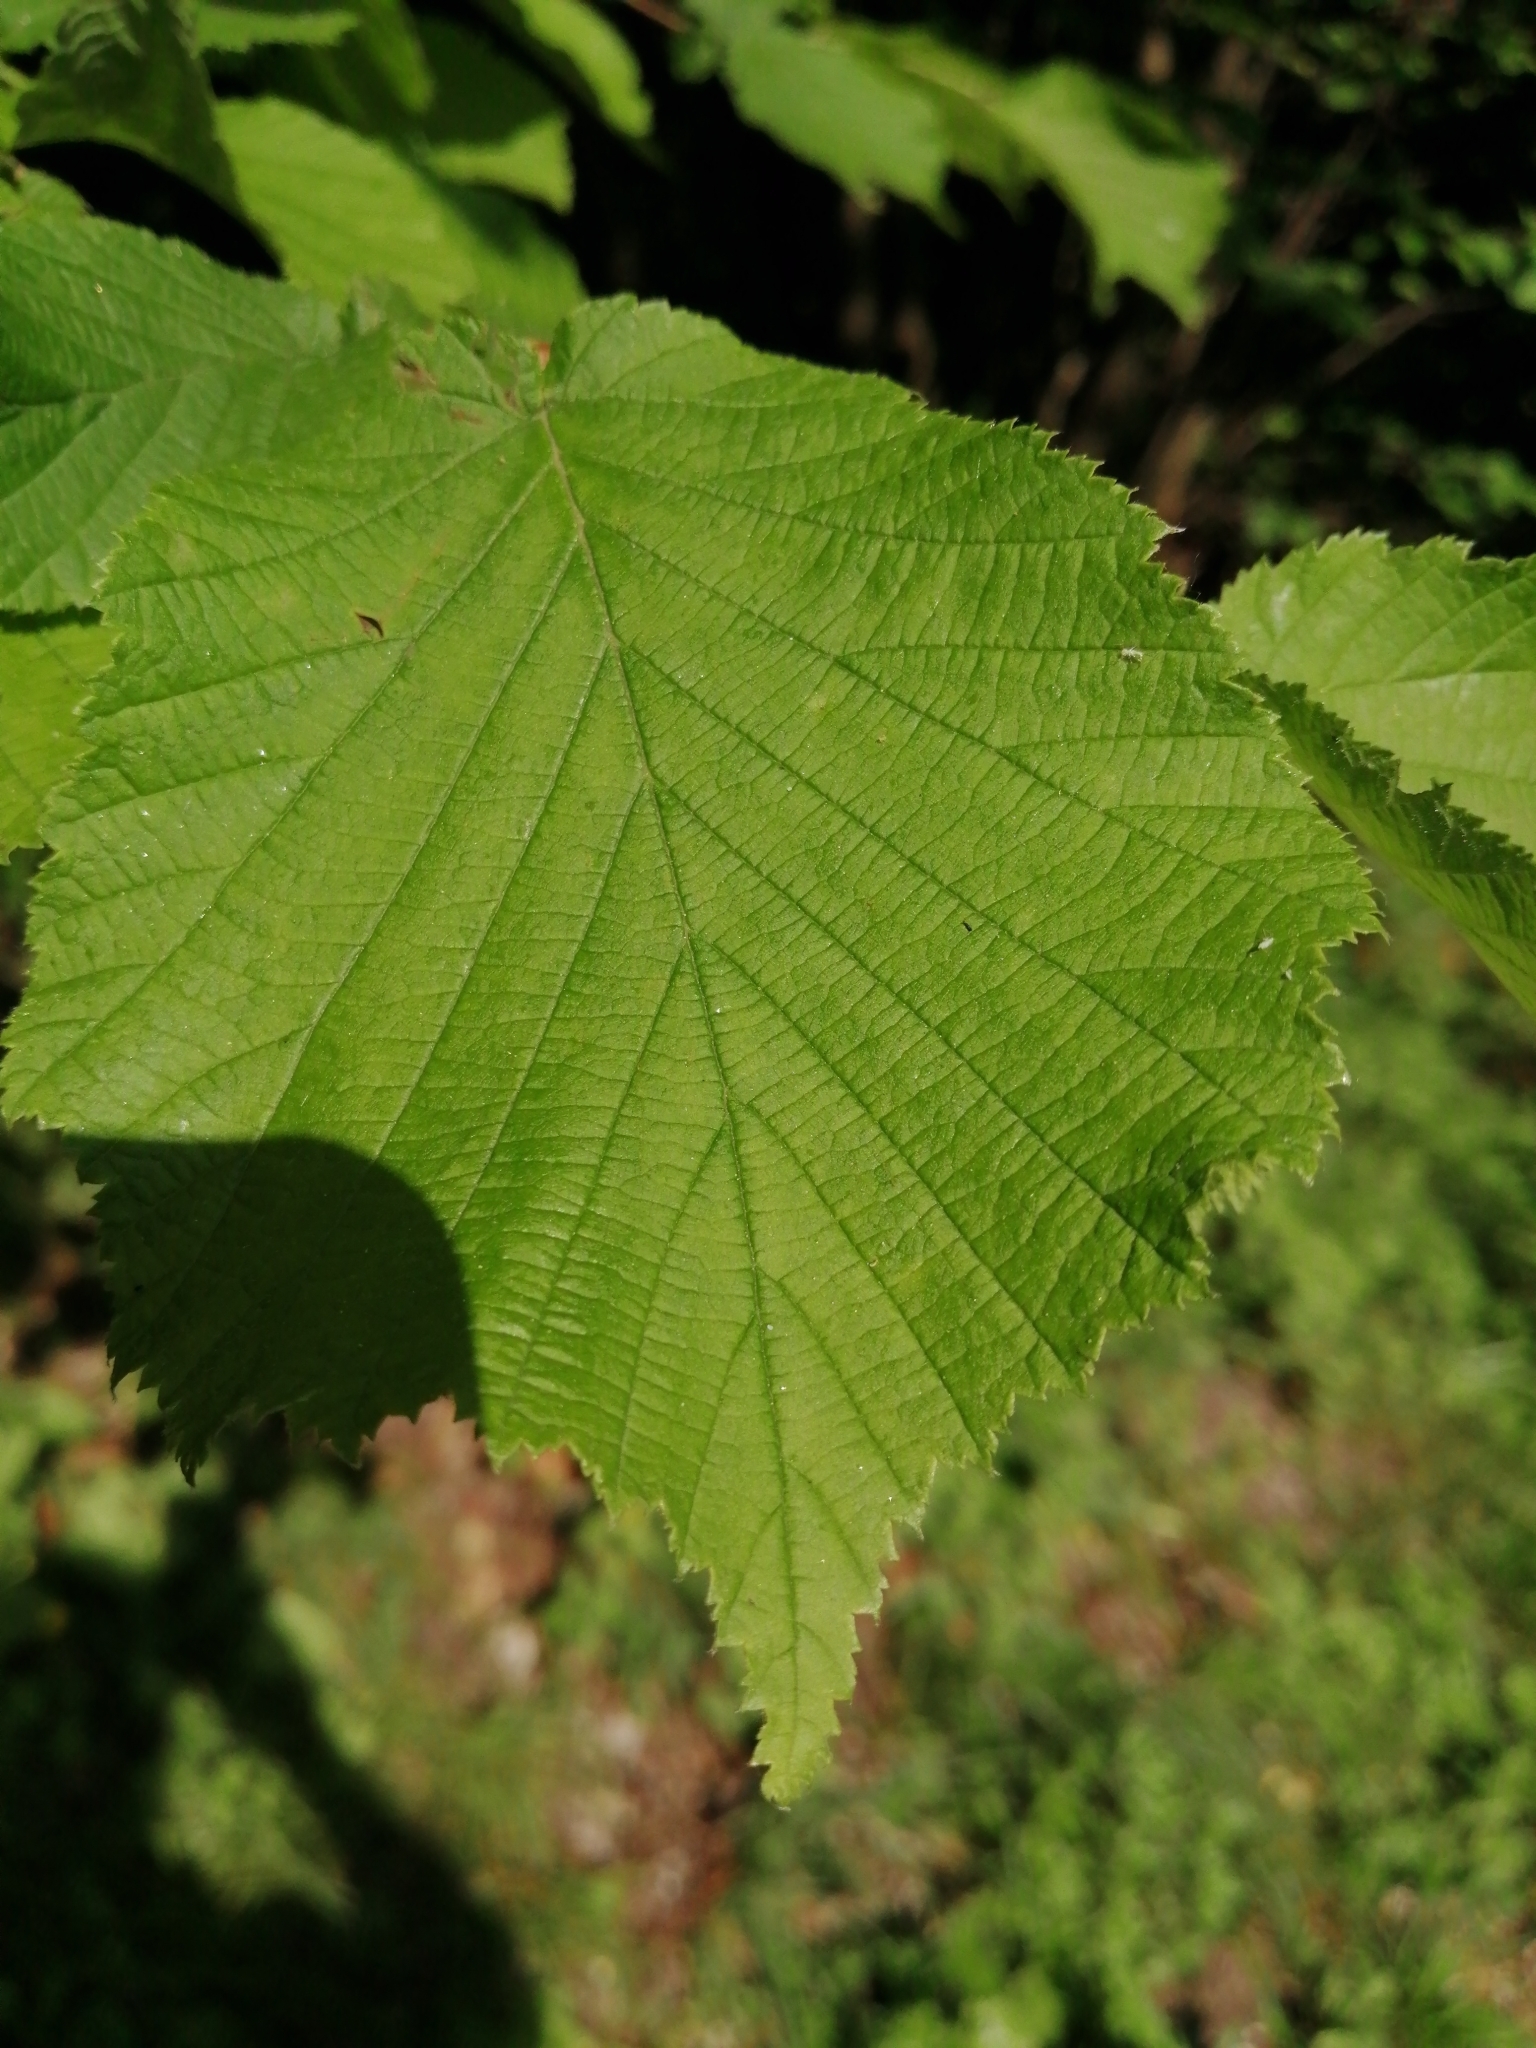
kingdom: Plantae
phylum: Tracheophyta
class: Magnoliopsida
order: Fagales
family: Betulaceae
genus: Corylus
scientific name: Corylus avellana
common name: European hazel
